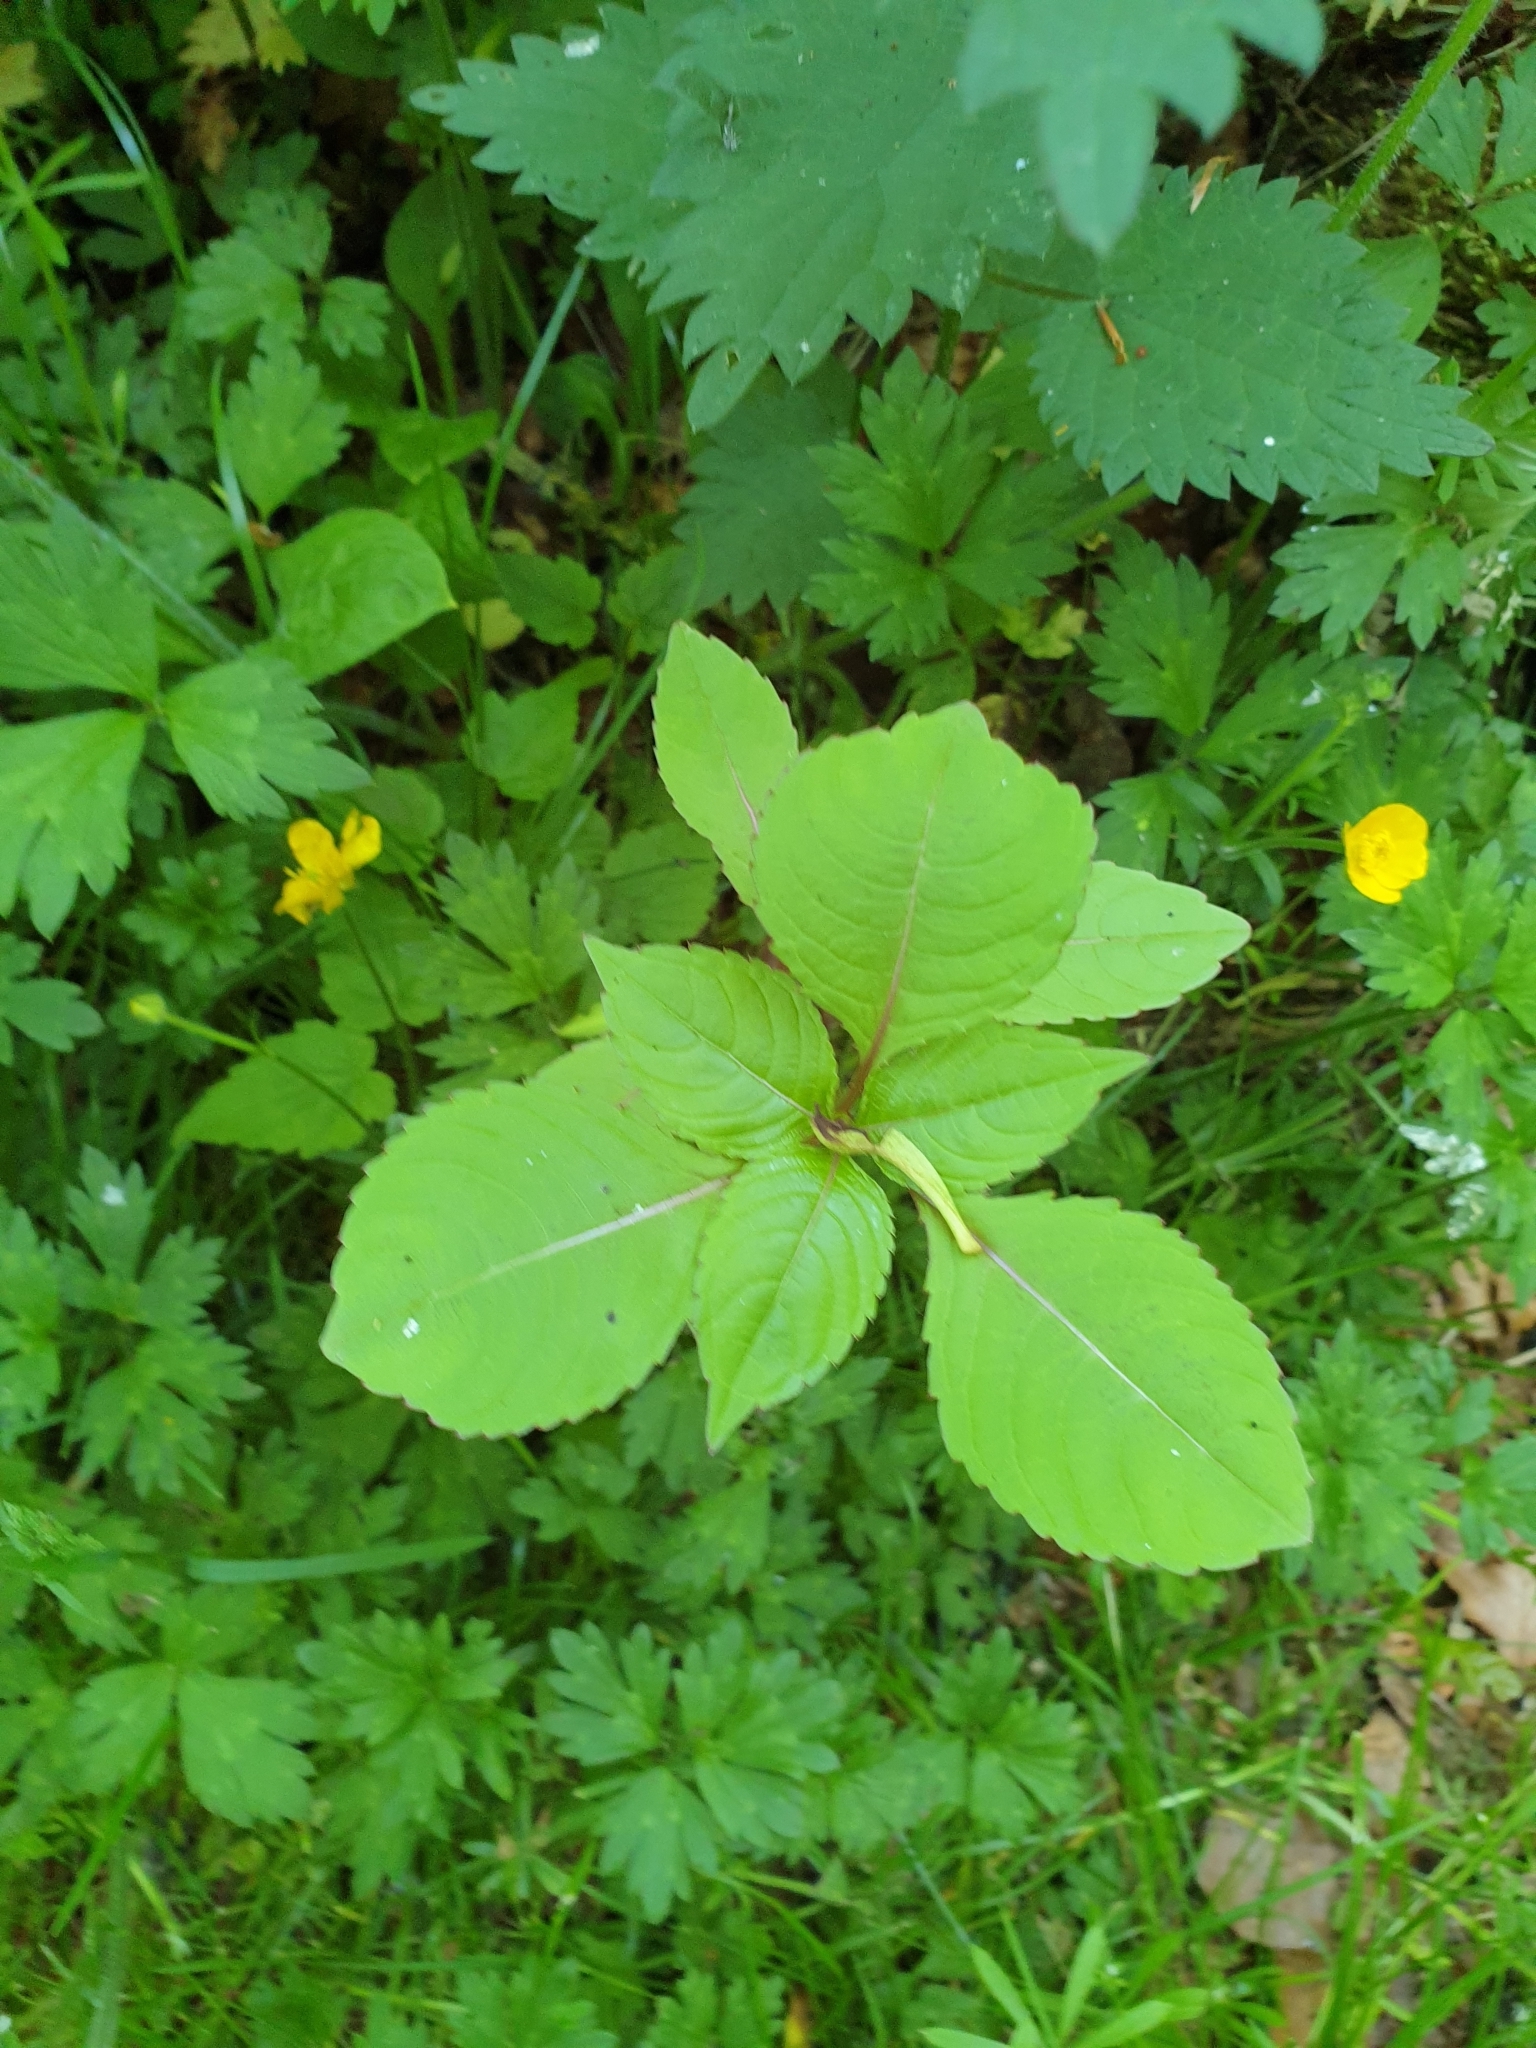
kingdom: Plantae
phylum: Tracheophyta
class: Magnoliopsida
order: Ericales
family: Balsaminaceae
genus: Impatiens
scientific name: Impatiens glandulifera
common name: Himalayan balsam
